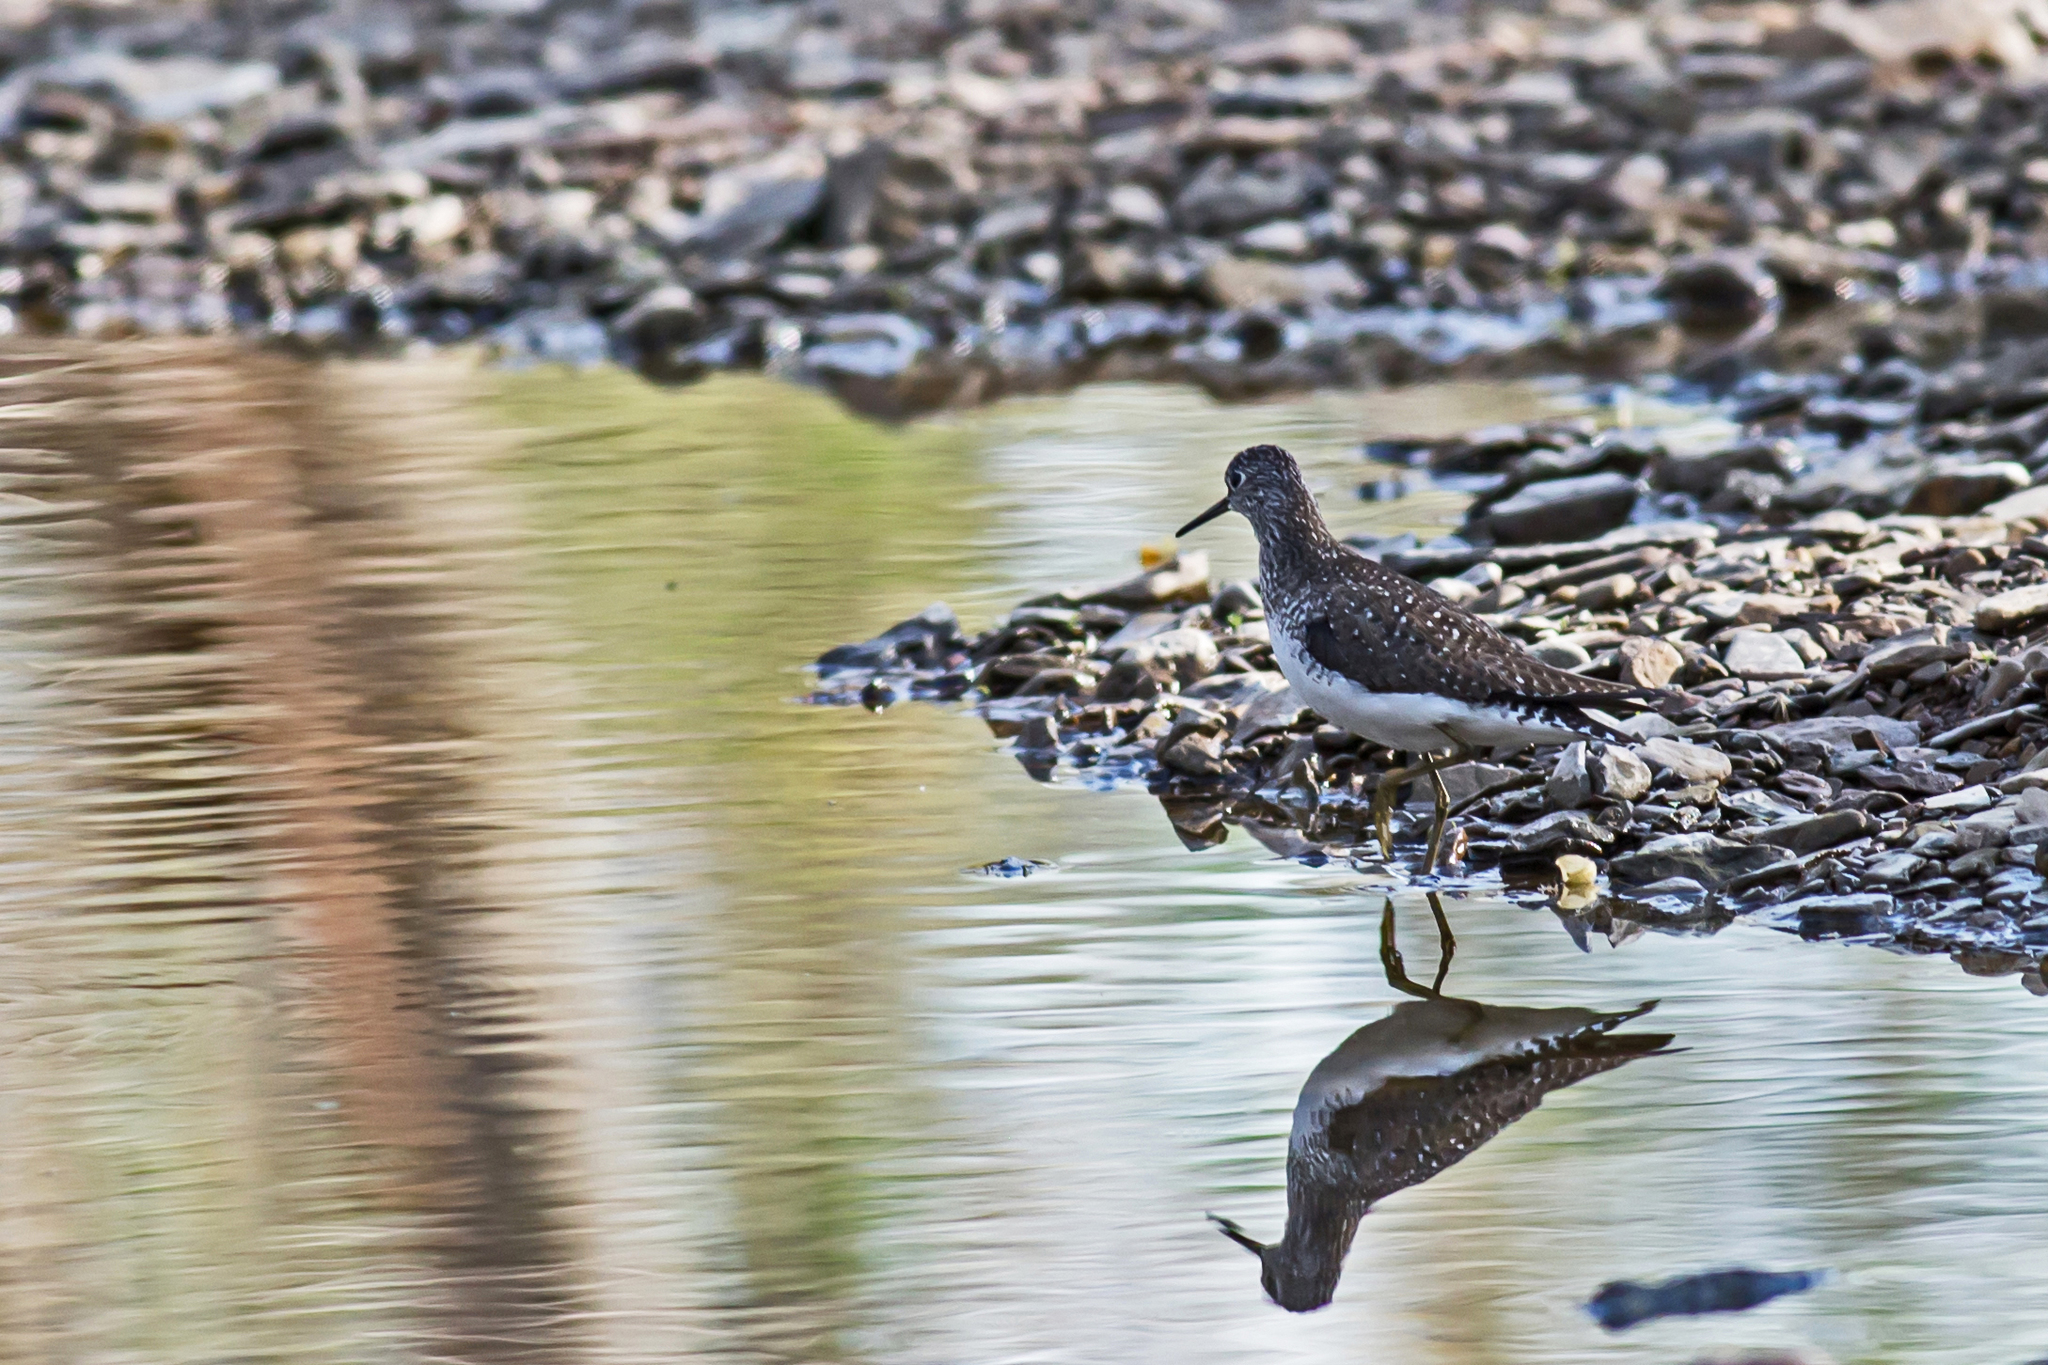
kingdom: Animalia
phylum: Chordata
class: Aves
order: Charadriiformes
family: Scolopacidae
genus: Tringa
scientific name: Tringa solitaria
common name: Solitary sandpiper
